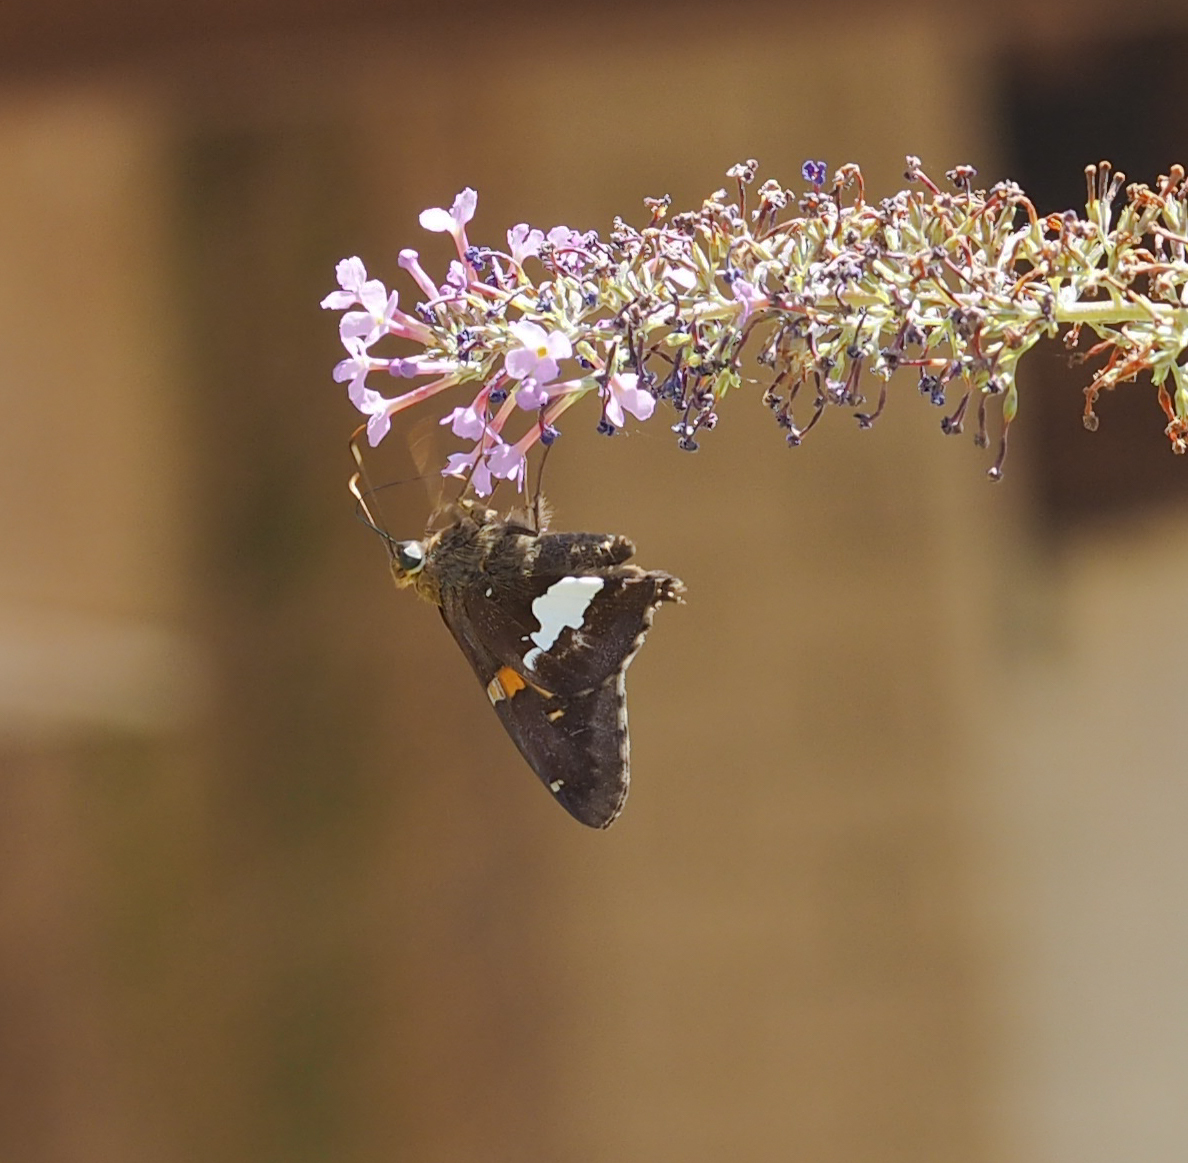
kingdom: Animalia
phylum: Arthropoda
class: Insecta
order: Lepidoptera
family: Hesperiidae
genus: Epargyreus
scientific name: Epargyreus clarus
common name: Silver-spotted skipper
